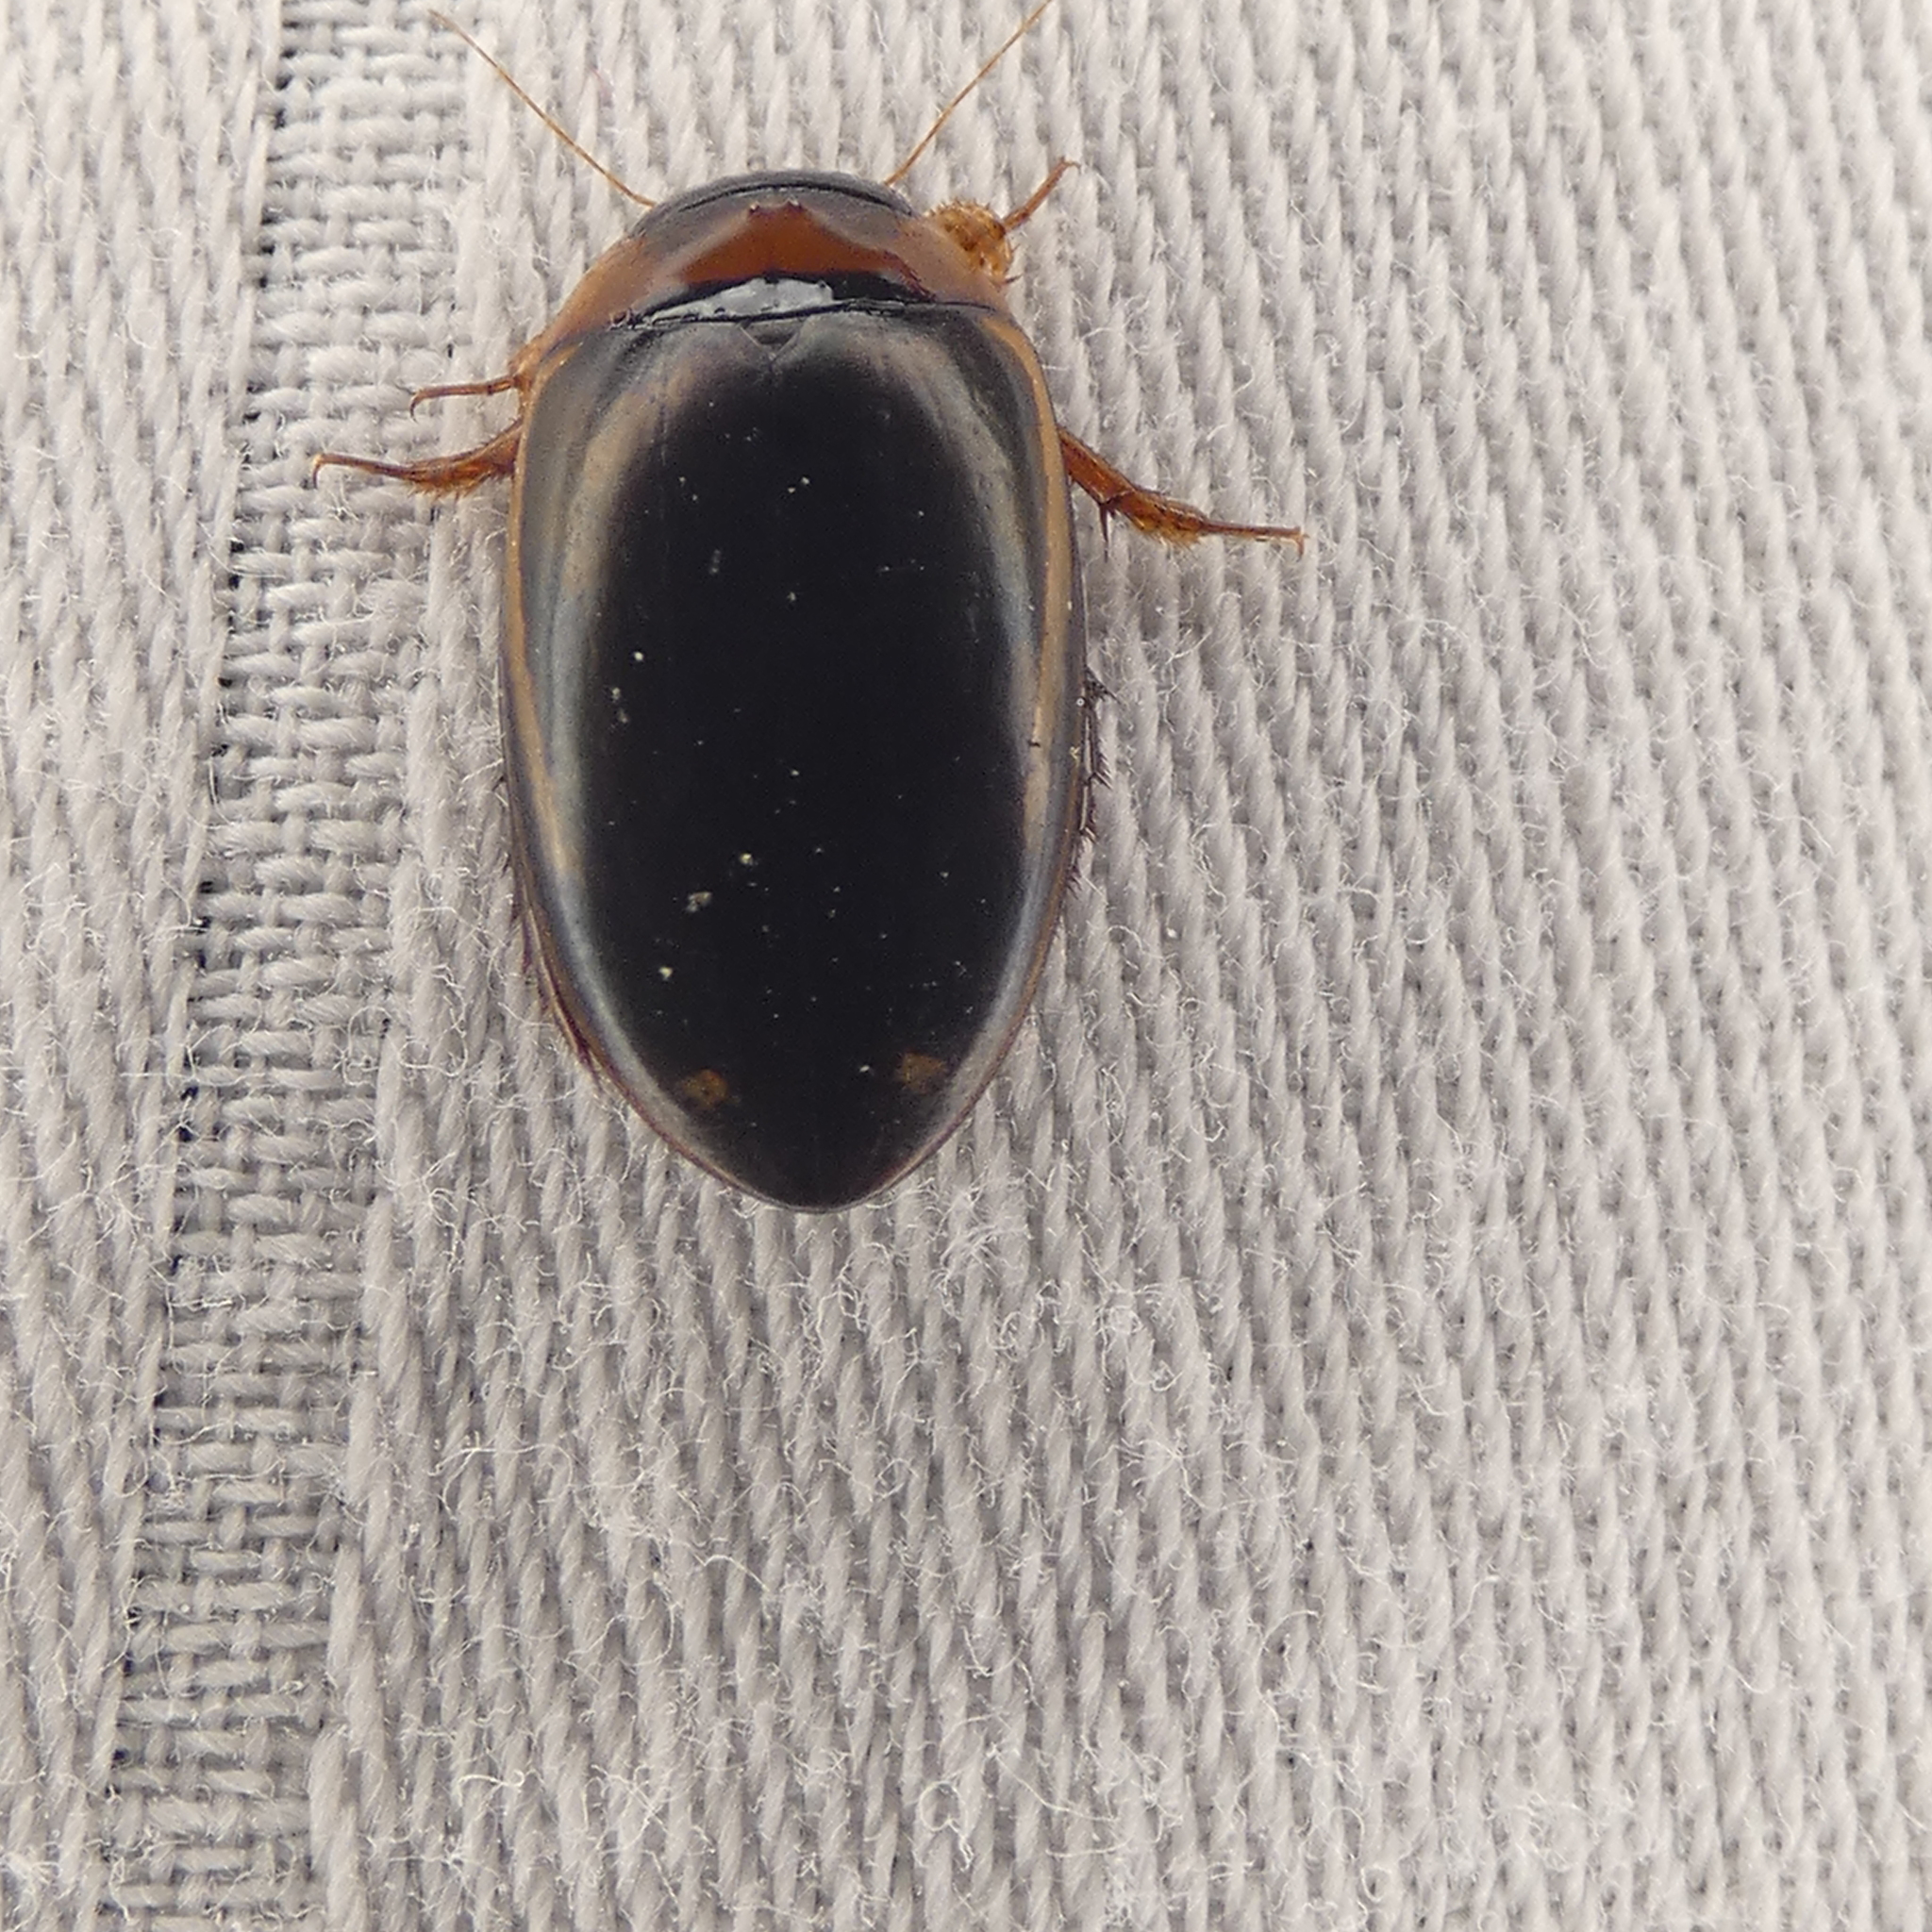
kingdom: Animalia
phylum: Arthropoda
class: Insecta
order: Coleoptera
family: Dytiscidae
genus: Hydaticus
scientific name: Hydaticus bimarginatus
